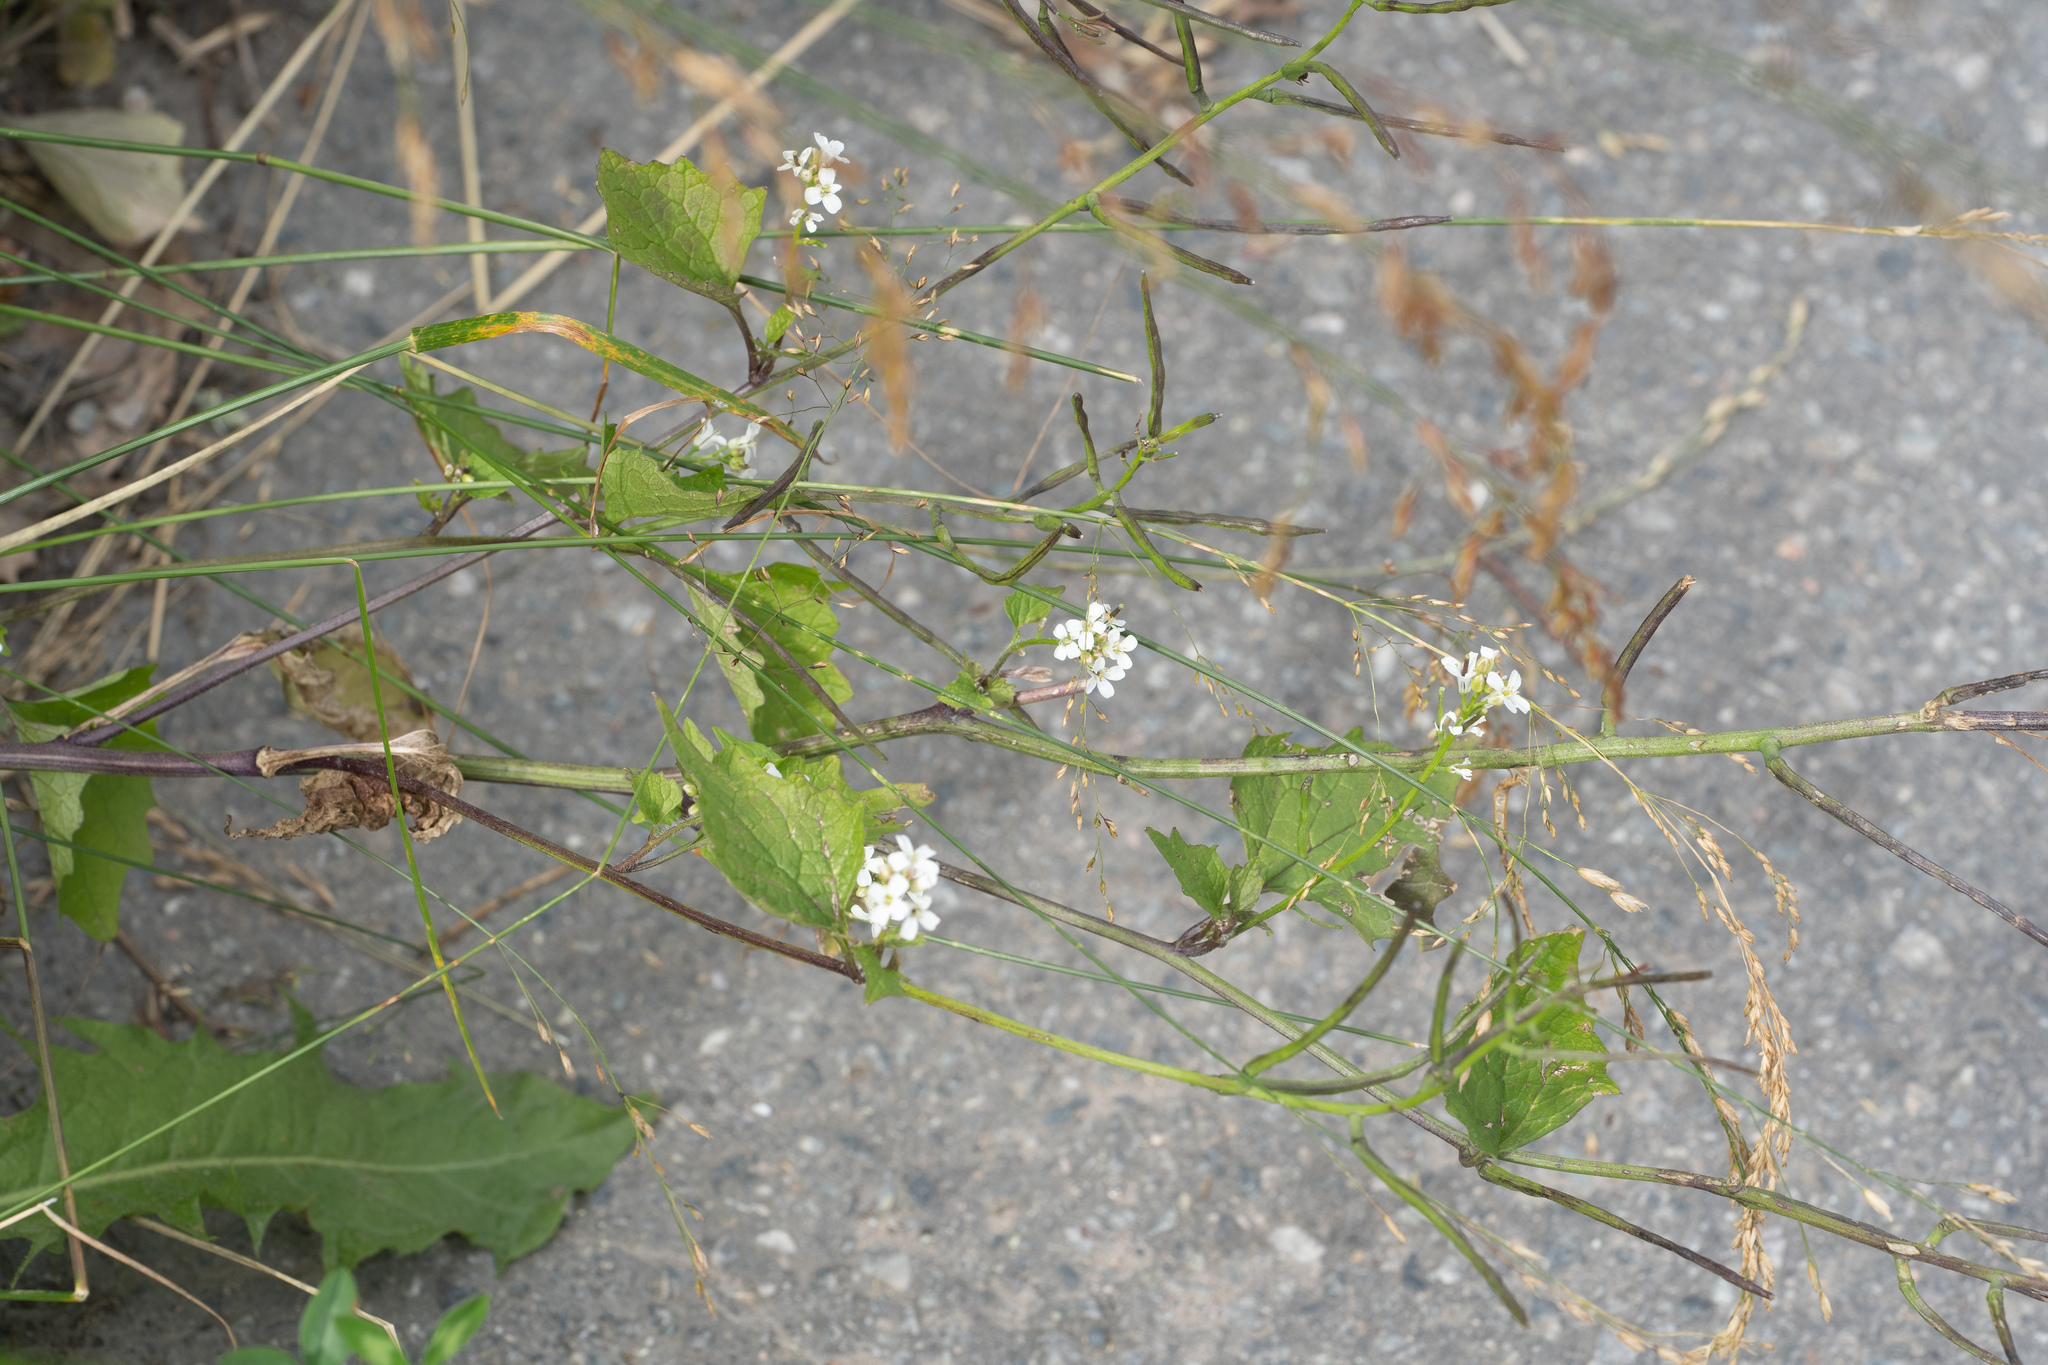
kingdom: Plantae
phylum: Tracheophyta
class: Magnoliopsida
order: Brassicales
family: Brassicaceae
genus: Alliaria
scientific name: Alliaria petiolata
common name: Garlic mustard
